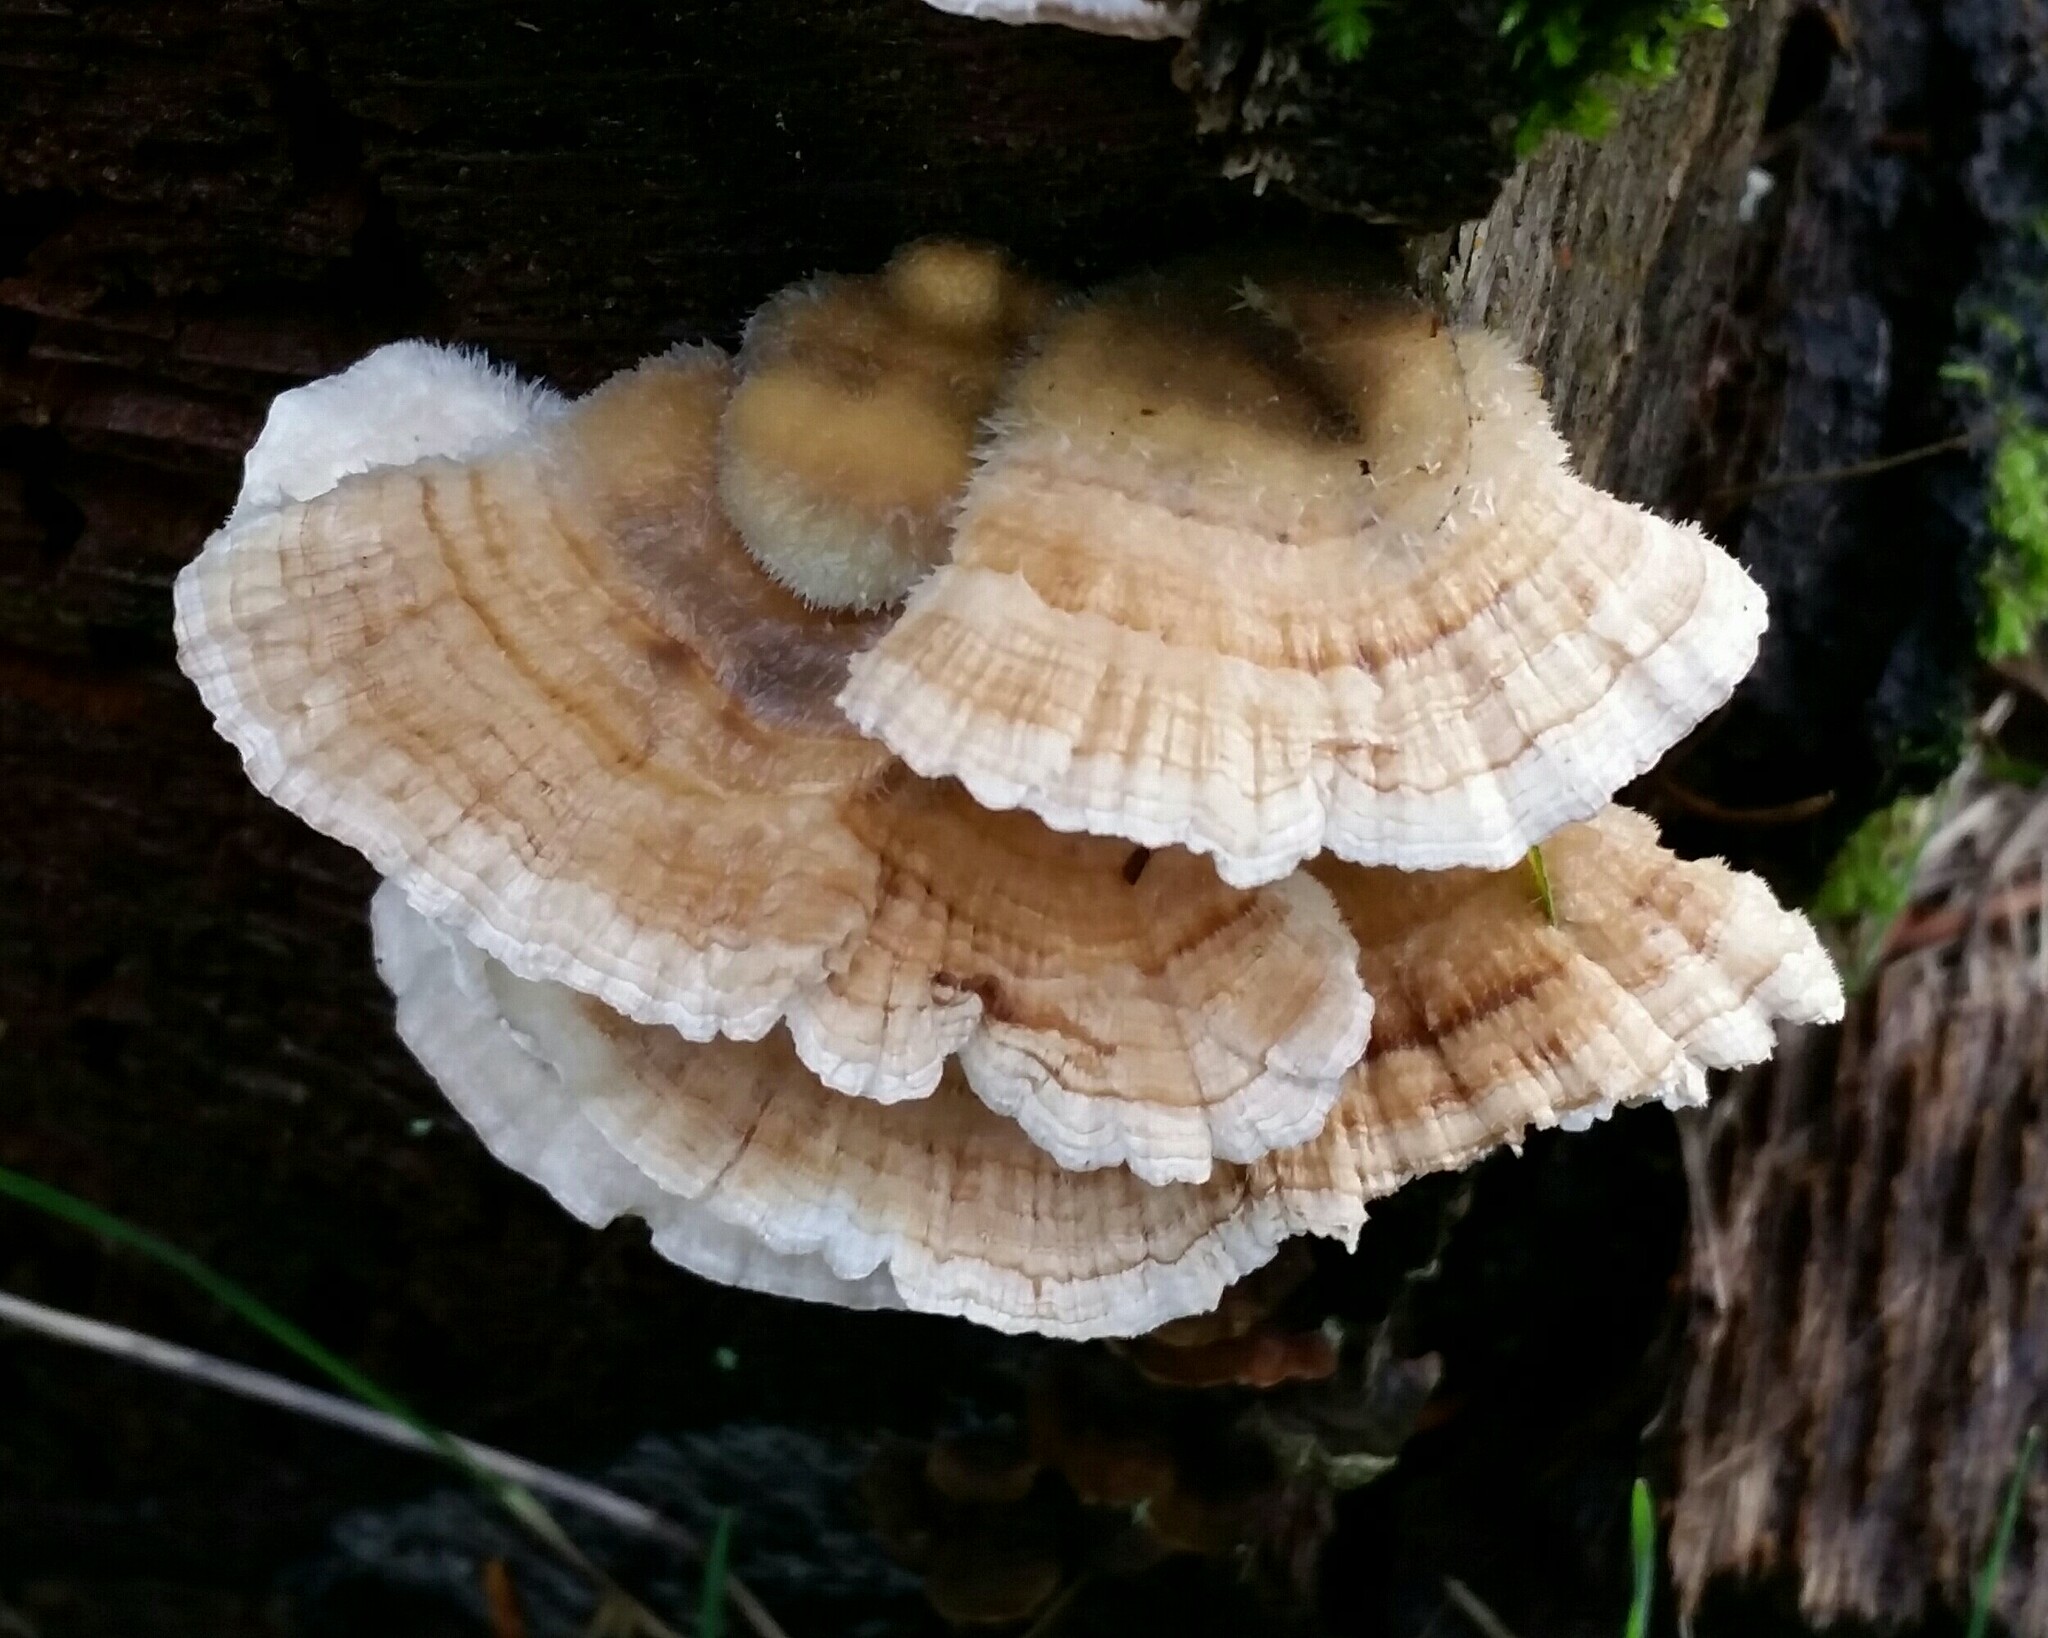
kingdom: Fungi
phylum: Basidiomycota
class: Agaricomycetes
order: Polyporales
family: Polyporaceae
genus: Trametes
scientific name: Trametes versicolor
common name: Turkeytail
